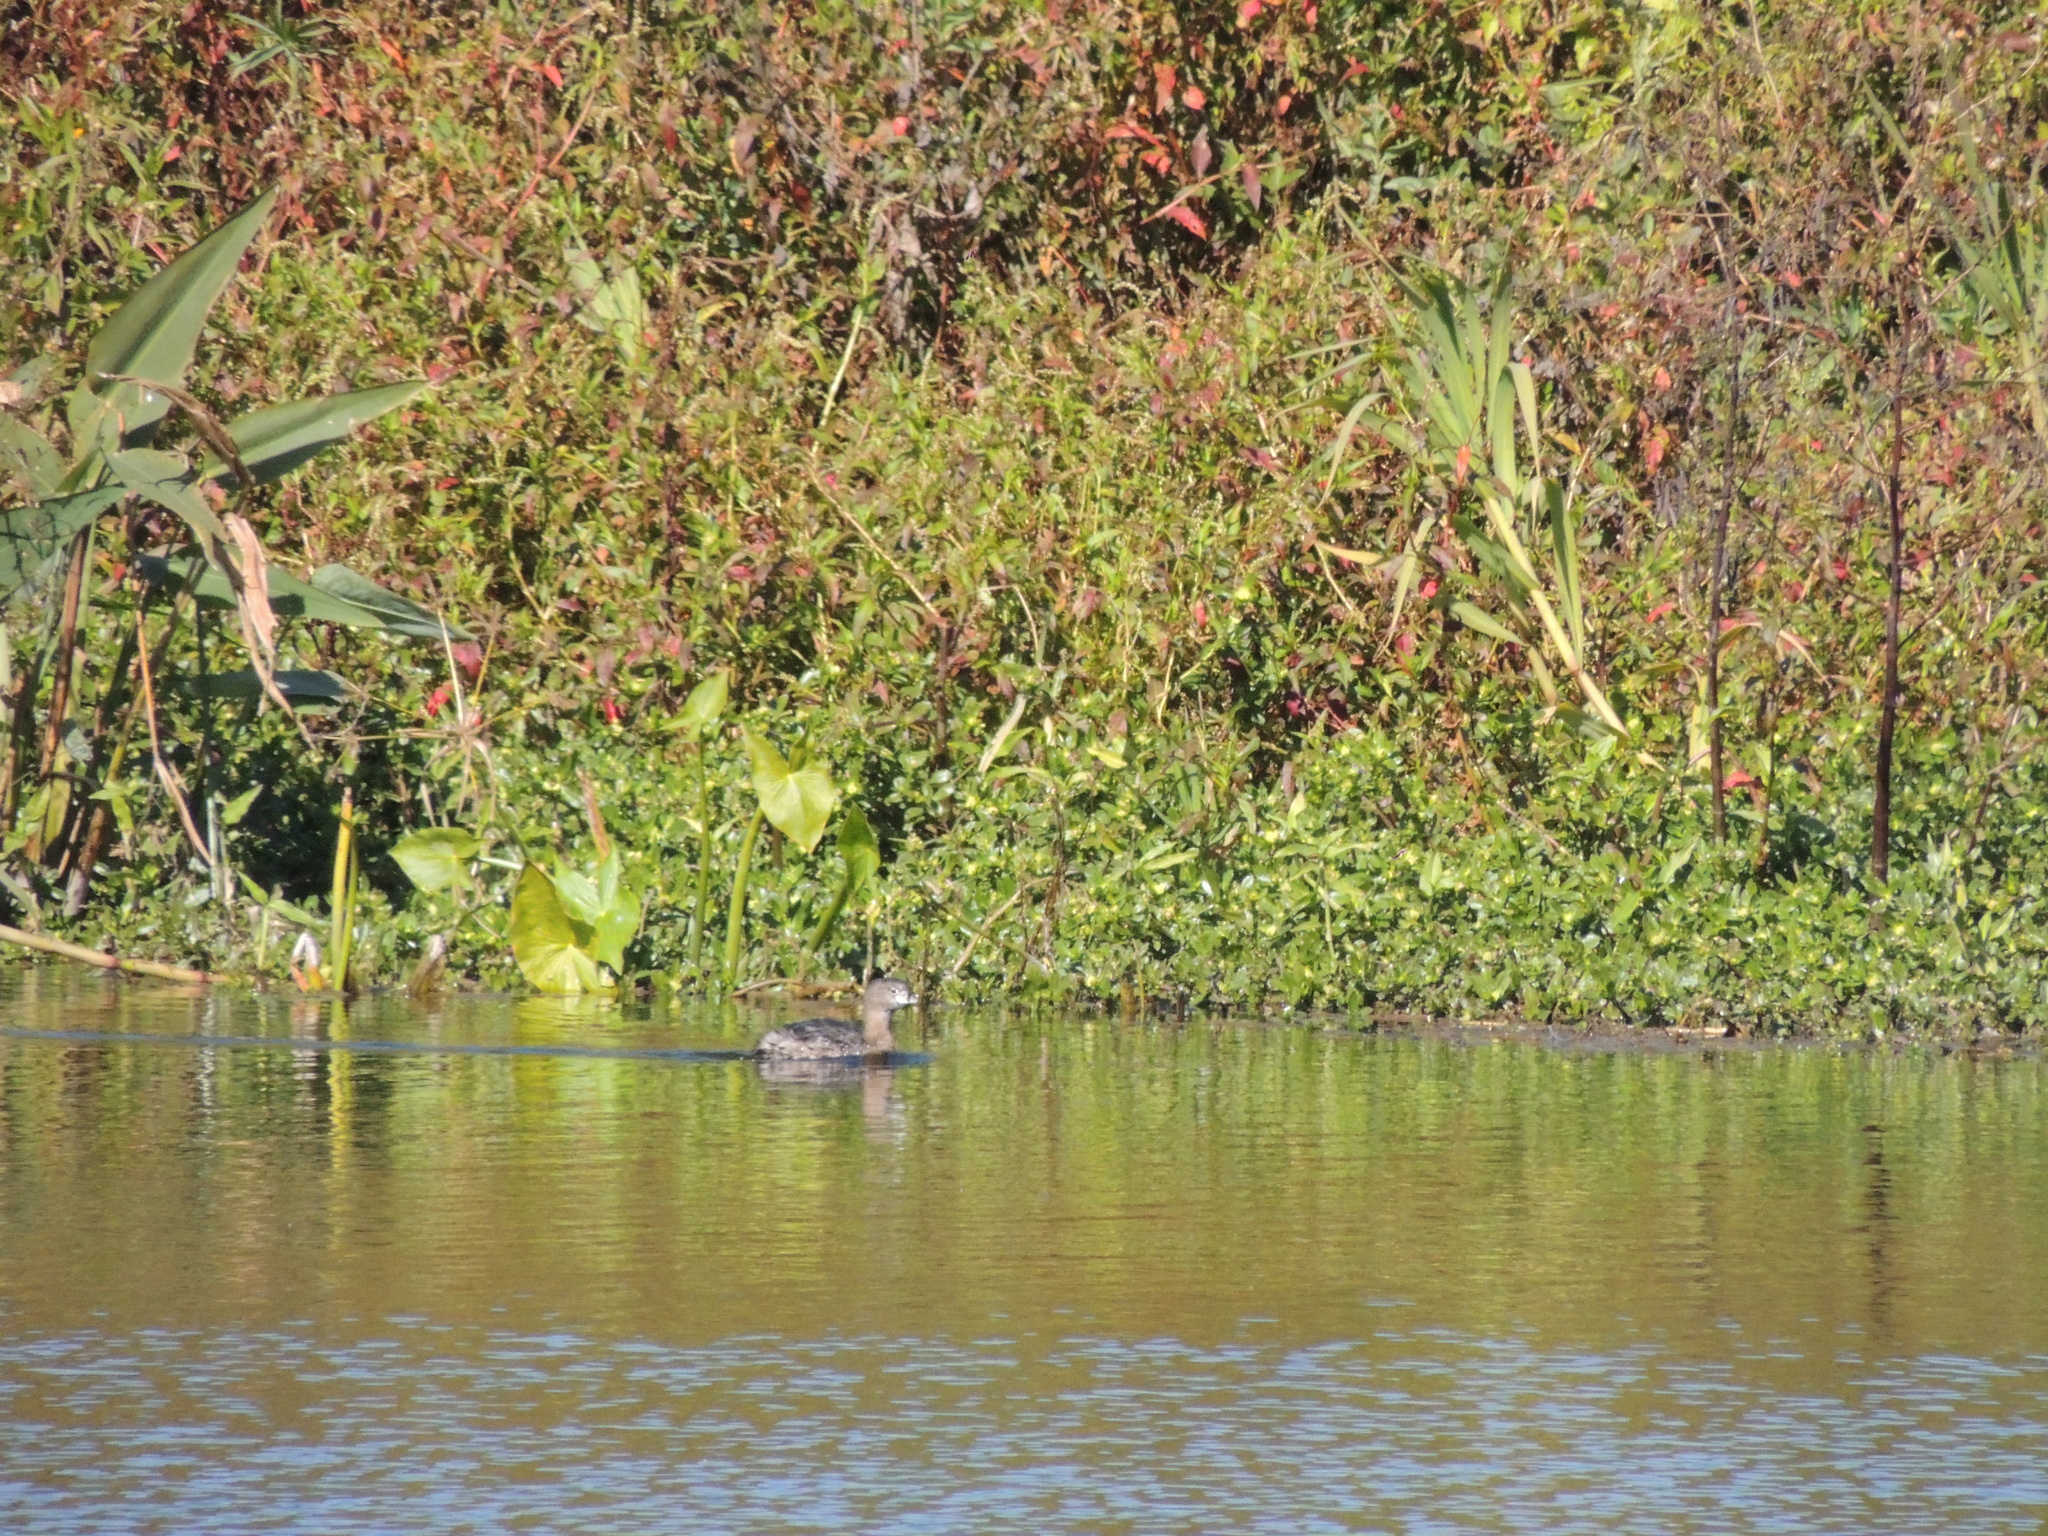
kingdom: Animalia
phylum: Chordata
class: Aves
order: Podicipediformes
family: Podicipedidae
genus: Podilymbus
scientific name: Podilymbus podiceps
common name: Pied-billed grebe
